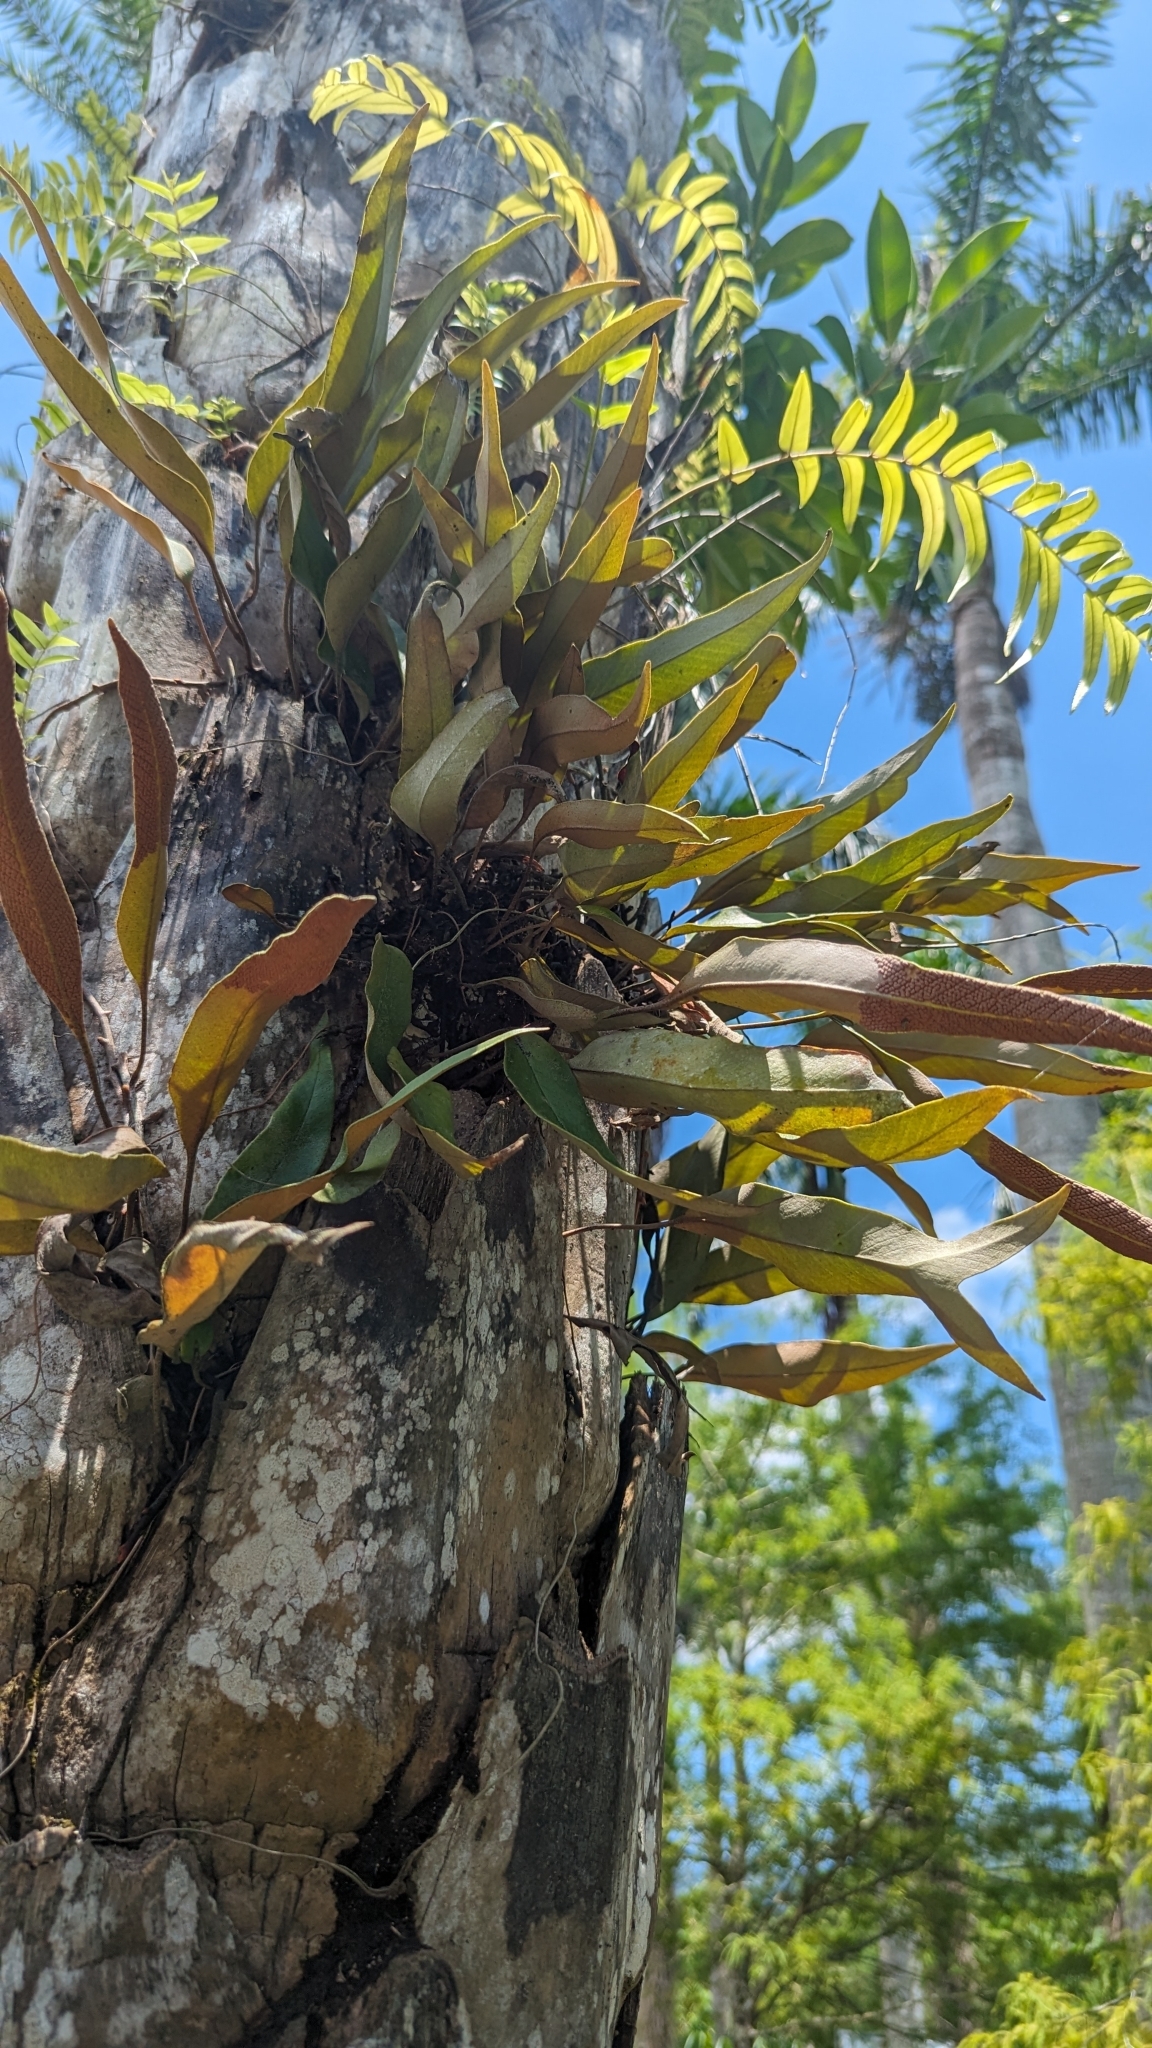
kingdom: Plantae
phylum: Tracheophyta
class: Polypodiopsida
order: Polypodiales
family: Polypodiaceae
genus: Pyrrosia
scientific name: Pyrrosia lingua
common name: Felt fern
